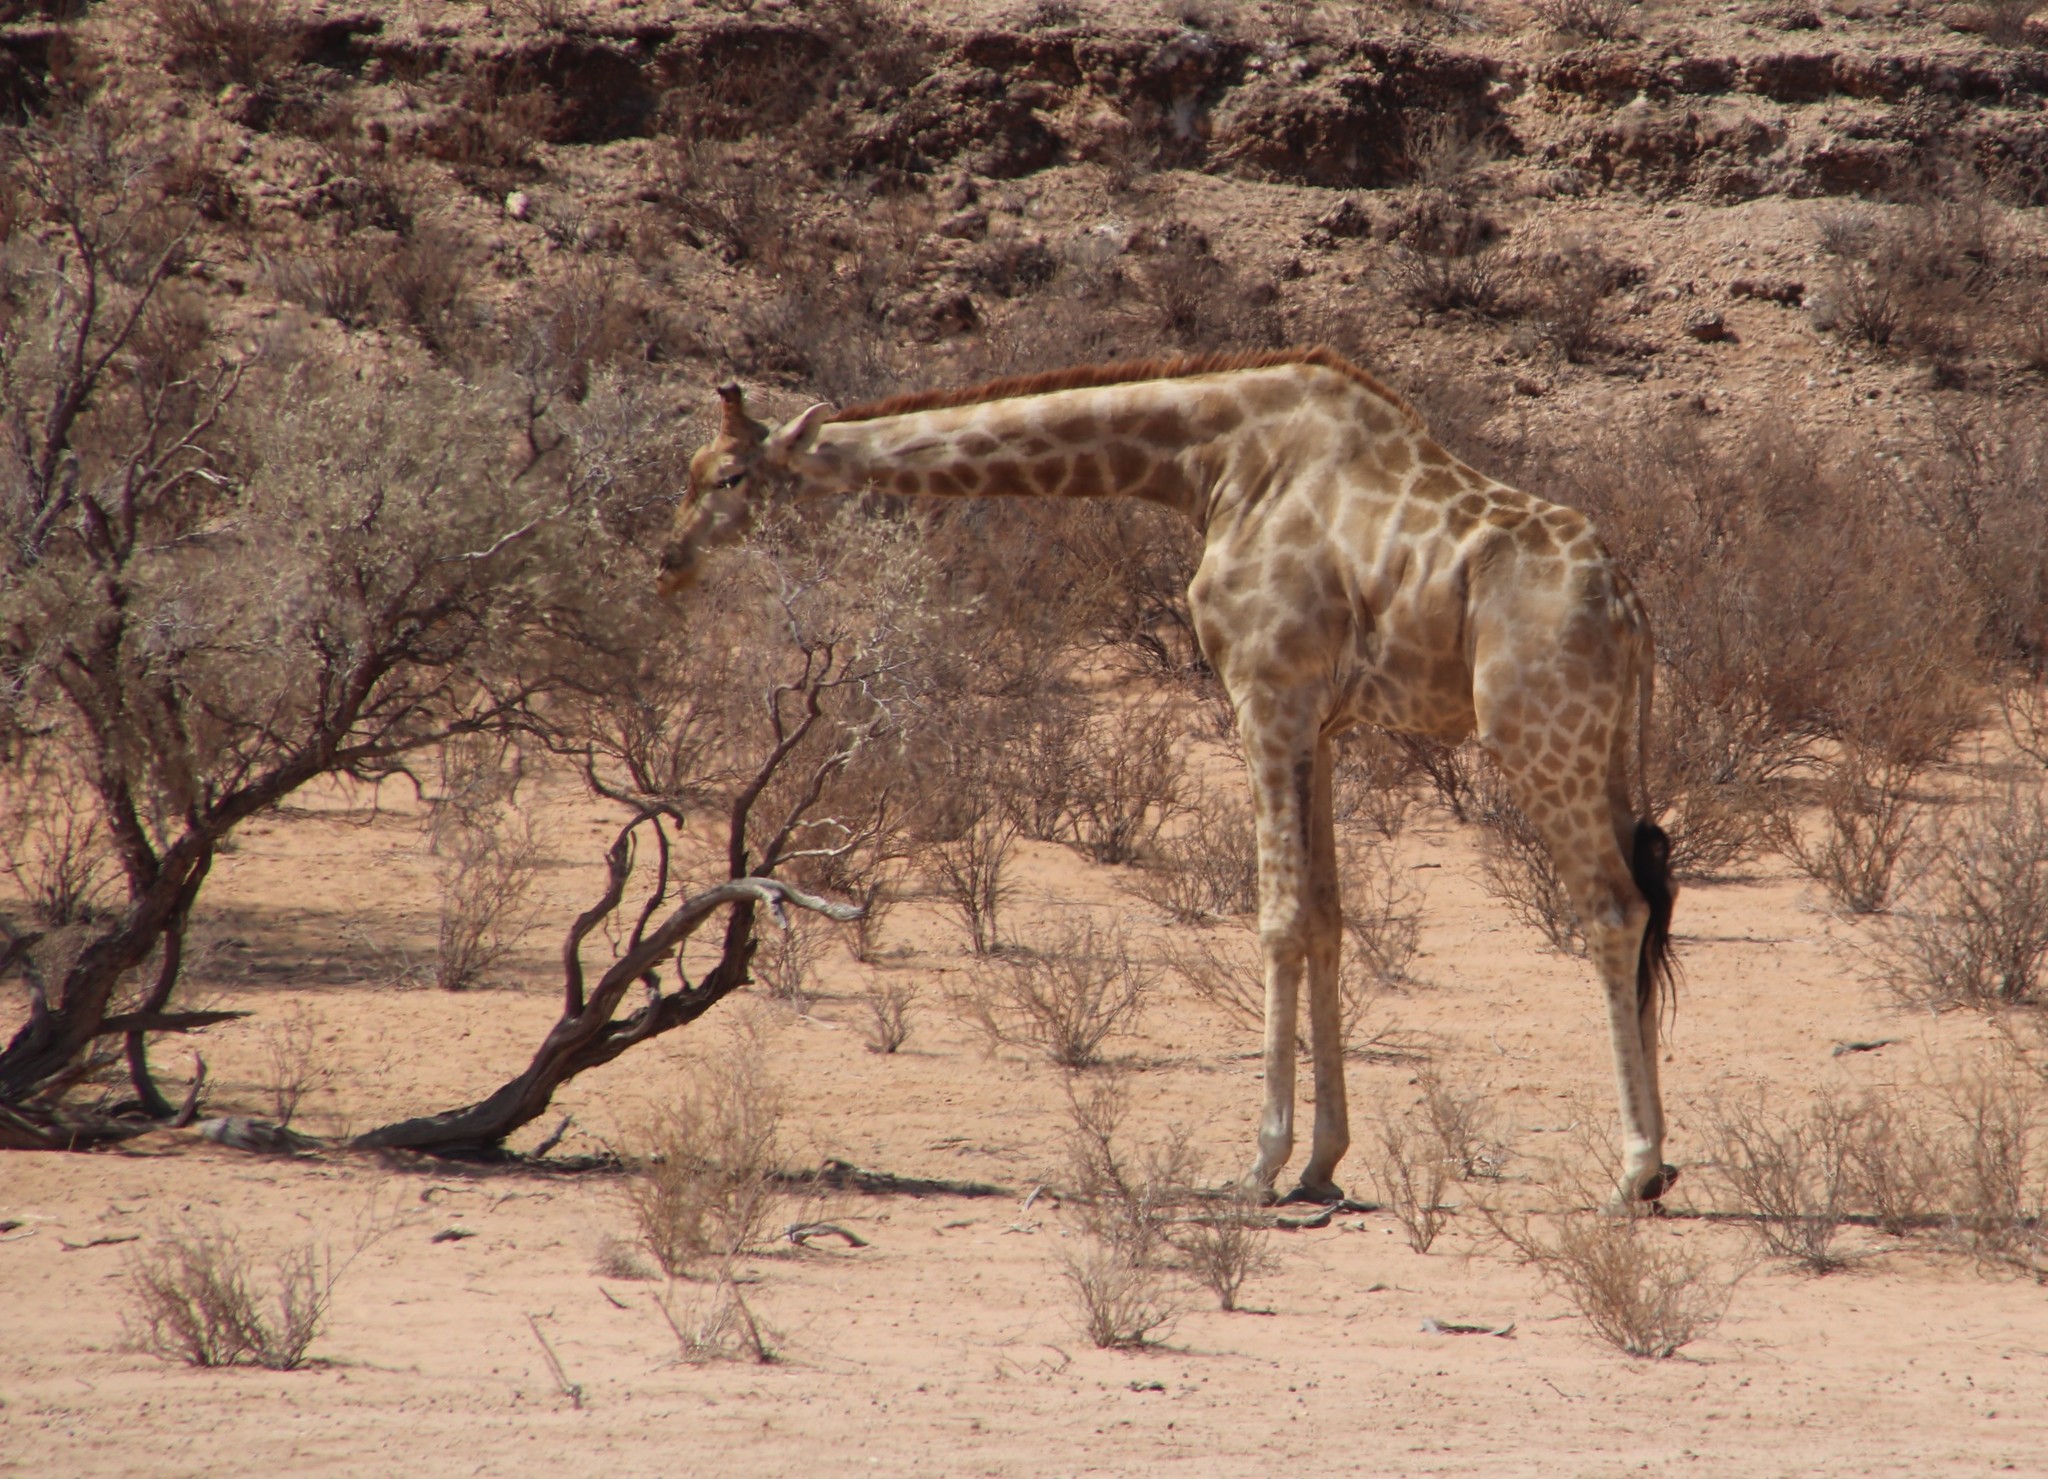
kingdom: Animalia
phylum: Chordata
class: Mammalia
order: Artiodactyla
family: Giraffidae
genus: Giraffa
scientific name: Giraffa giraffa
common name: Southern giraffe
